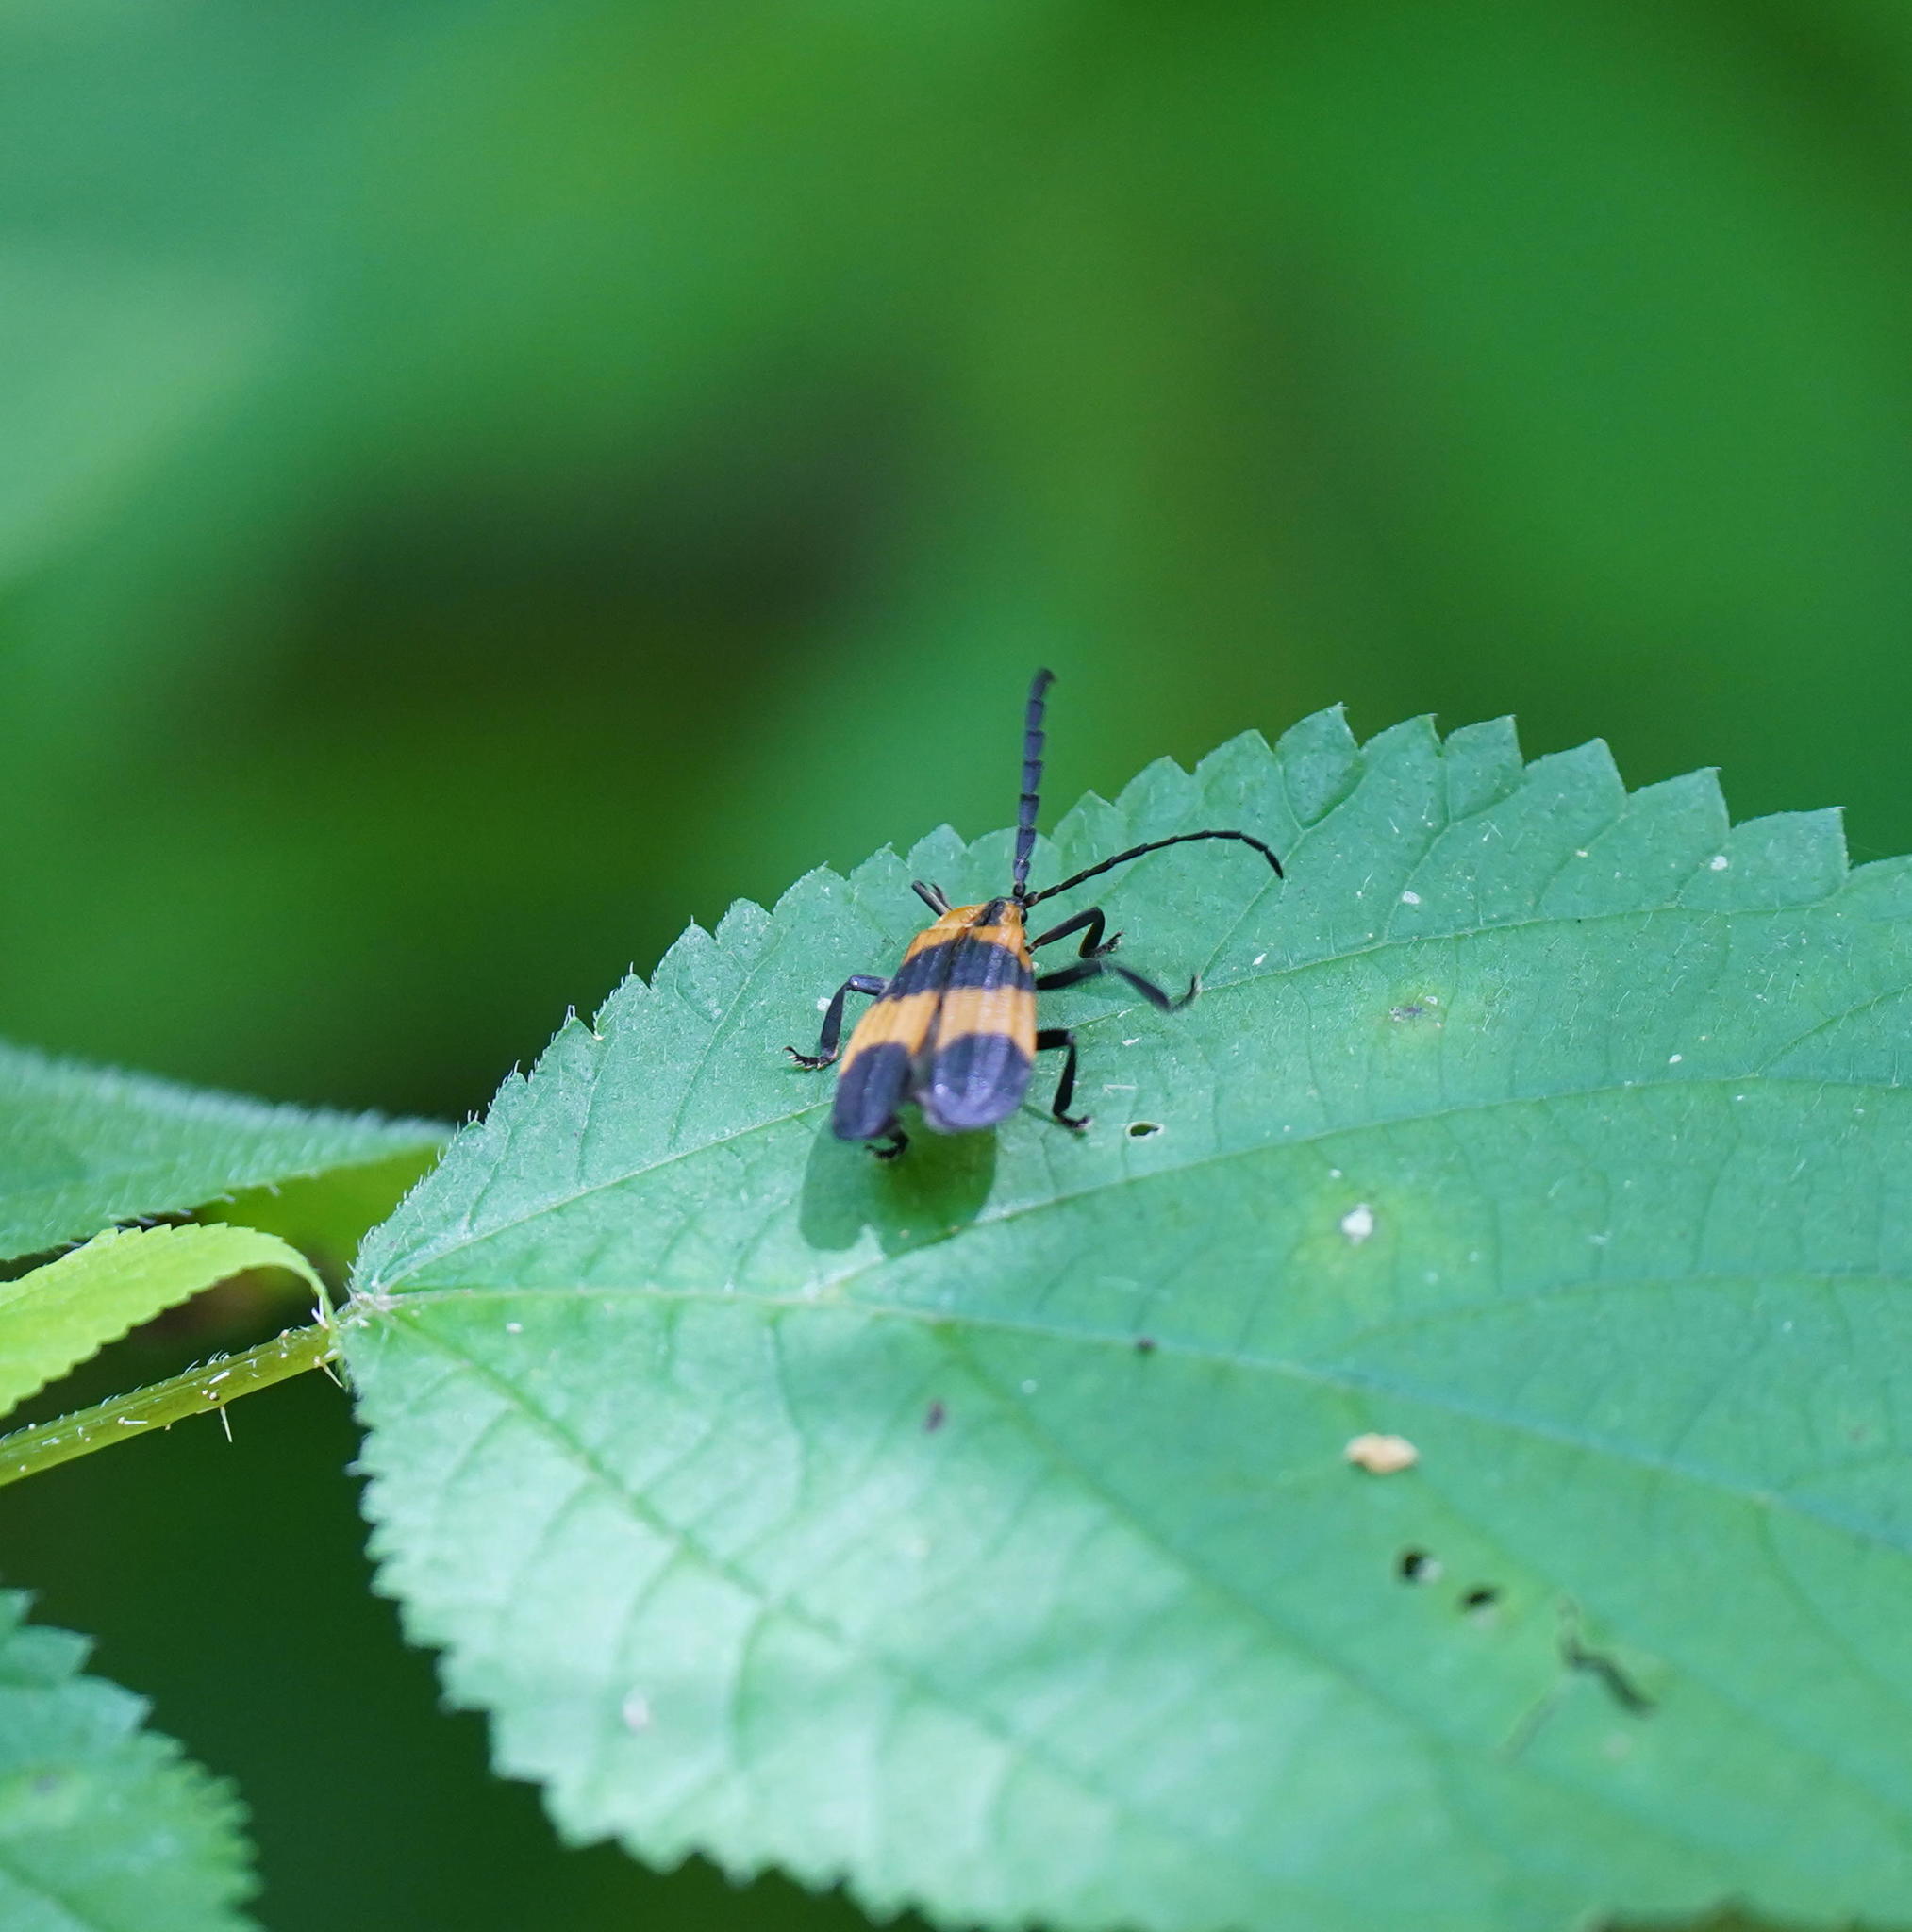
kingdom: Animalia
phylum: Arthropoda
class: Insecta
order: Coleoptera
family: Lycidae
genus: Calopteron
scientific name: Calopteron reticulatum
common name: Banded net-winged beetle
